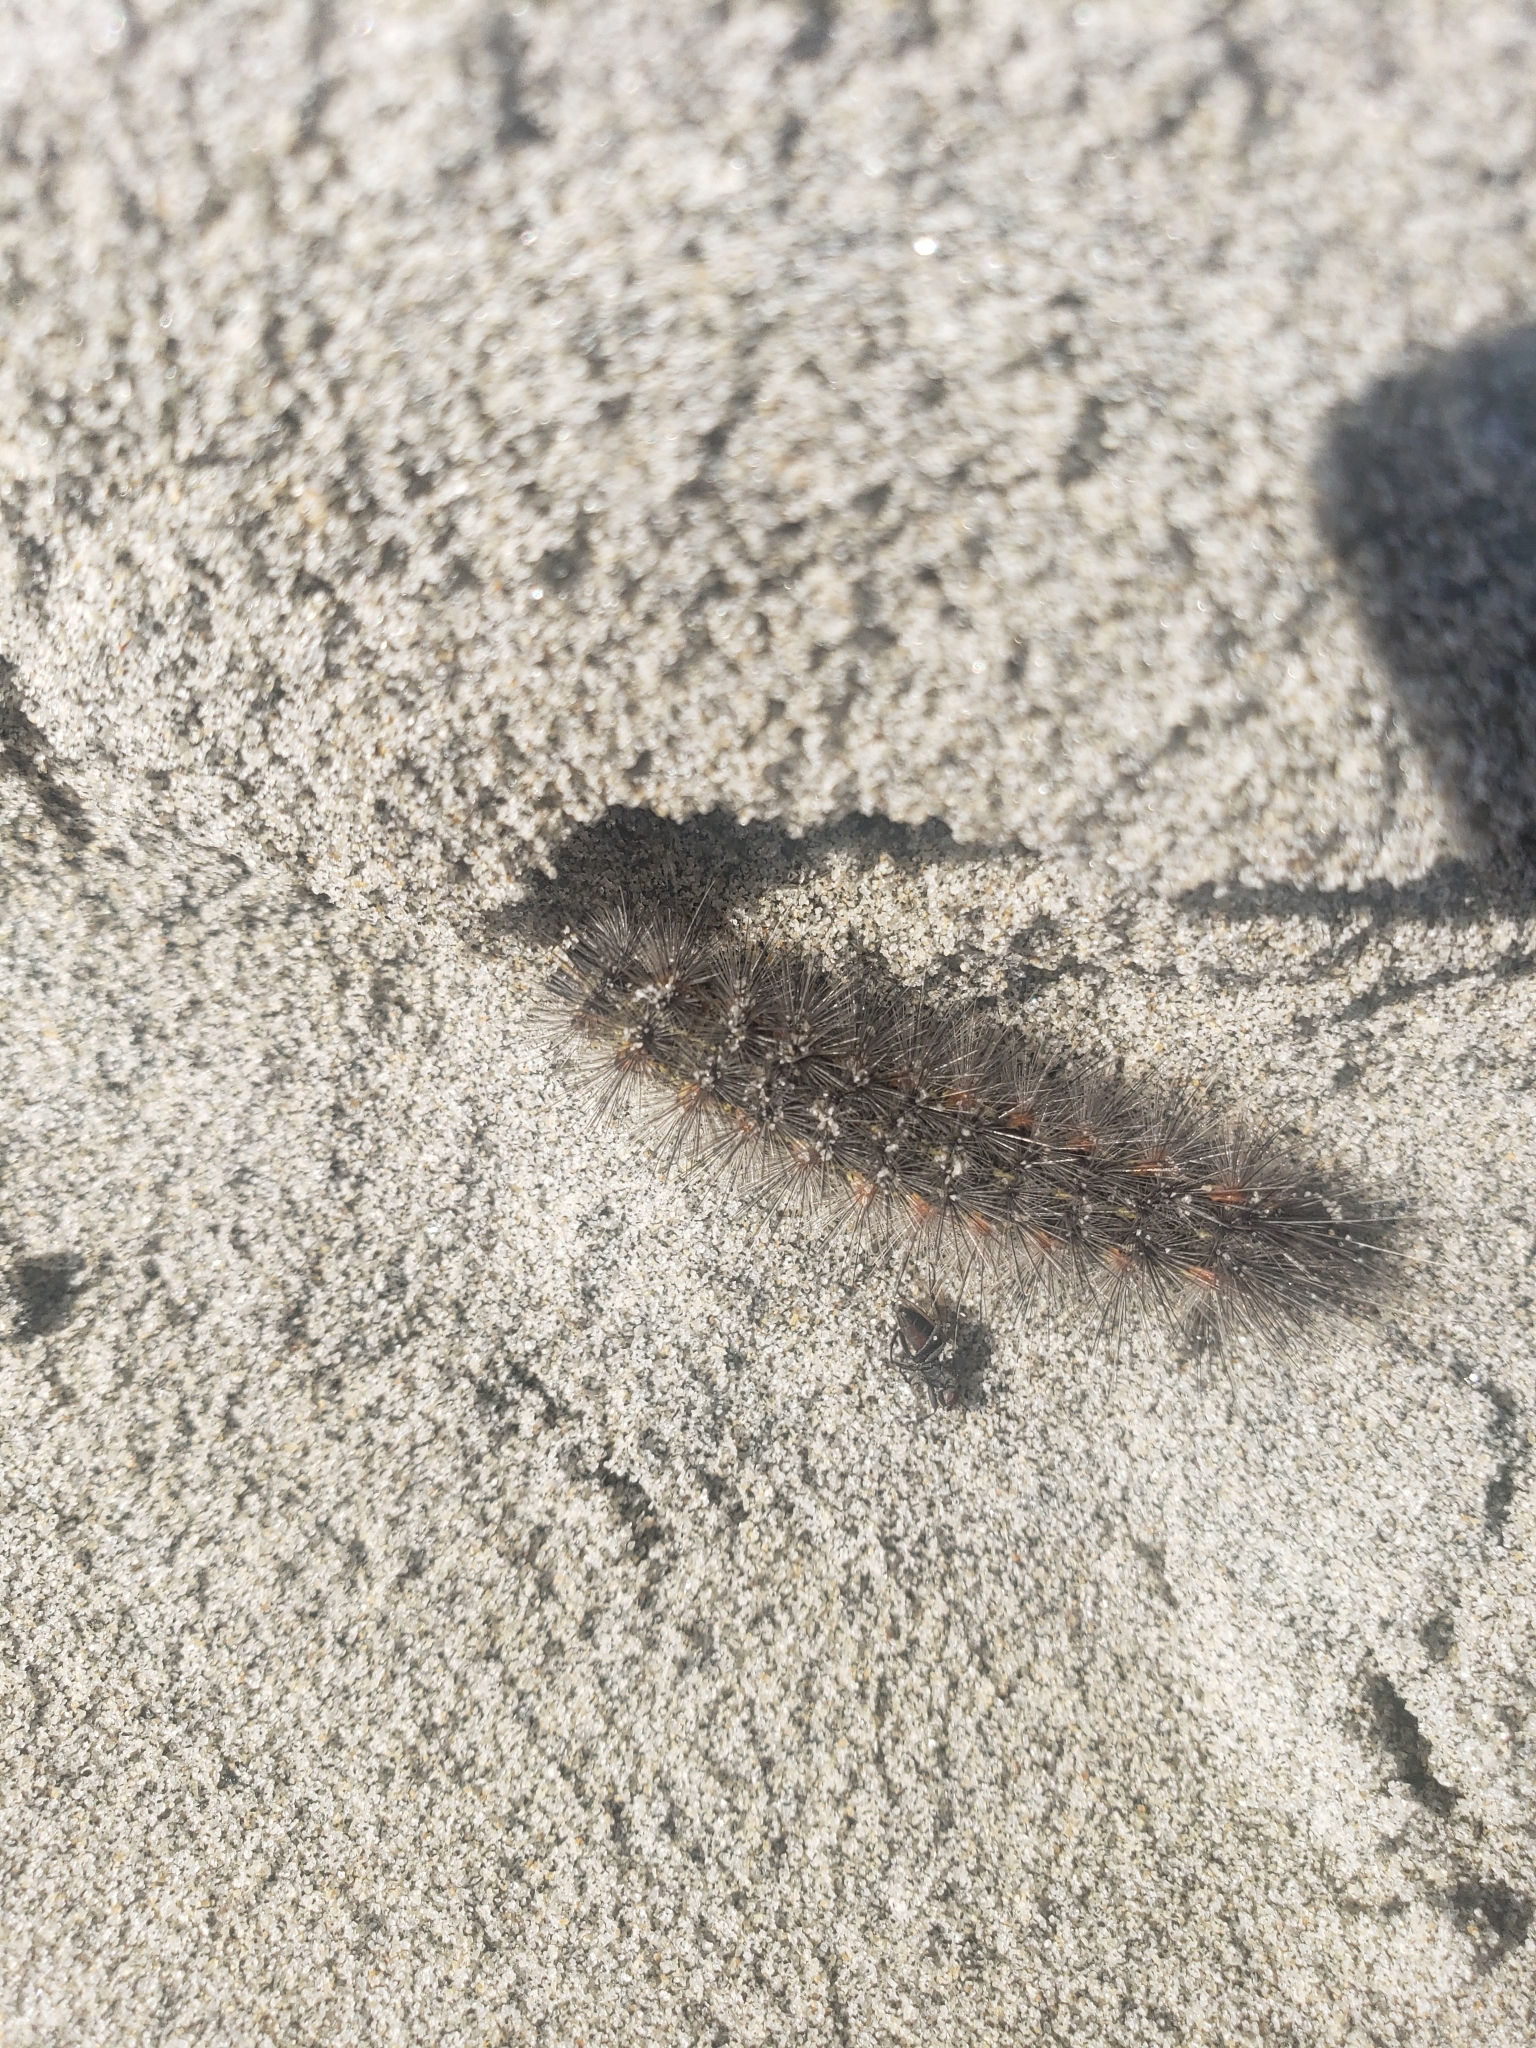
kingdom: Animalia
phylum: Arthropoda
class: Insecta
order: Lepidoptera
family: Erebidae
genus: Estigmene
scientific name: Estigmene acrea
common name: Salt marsh moth
